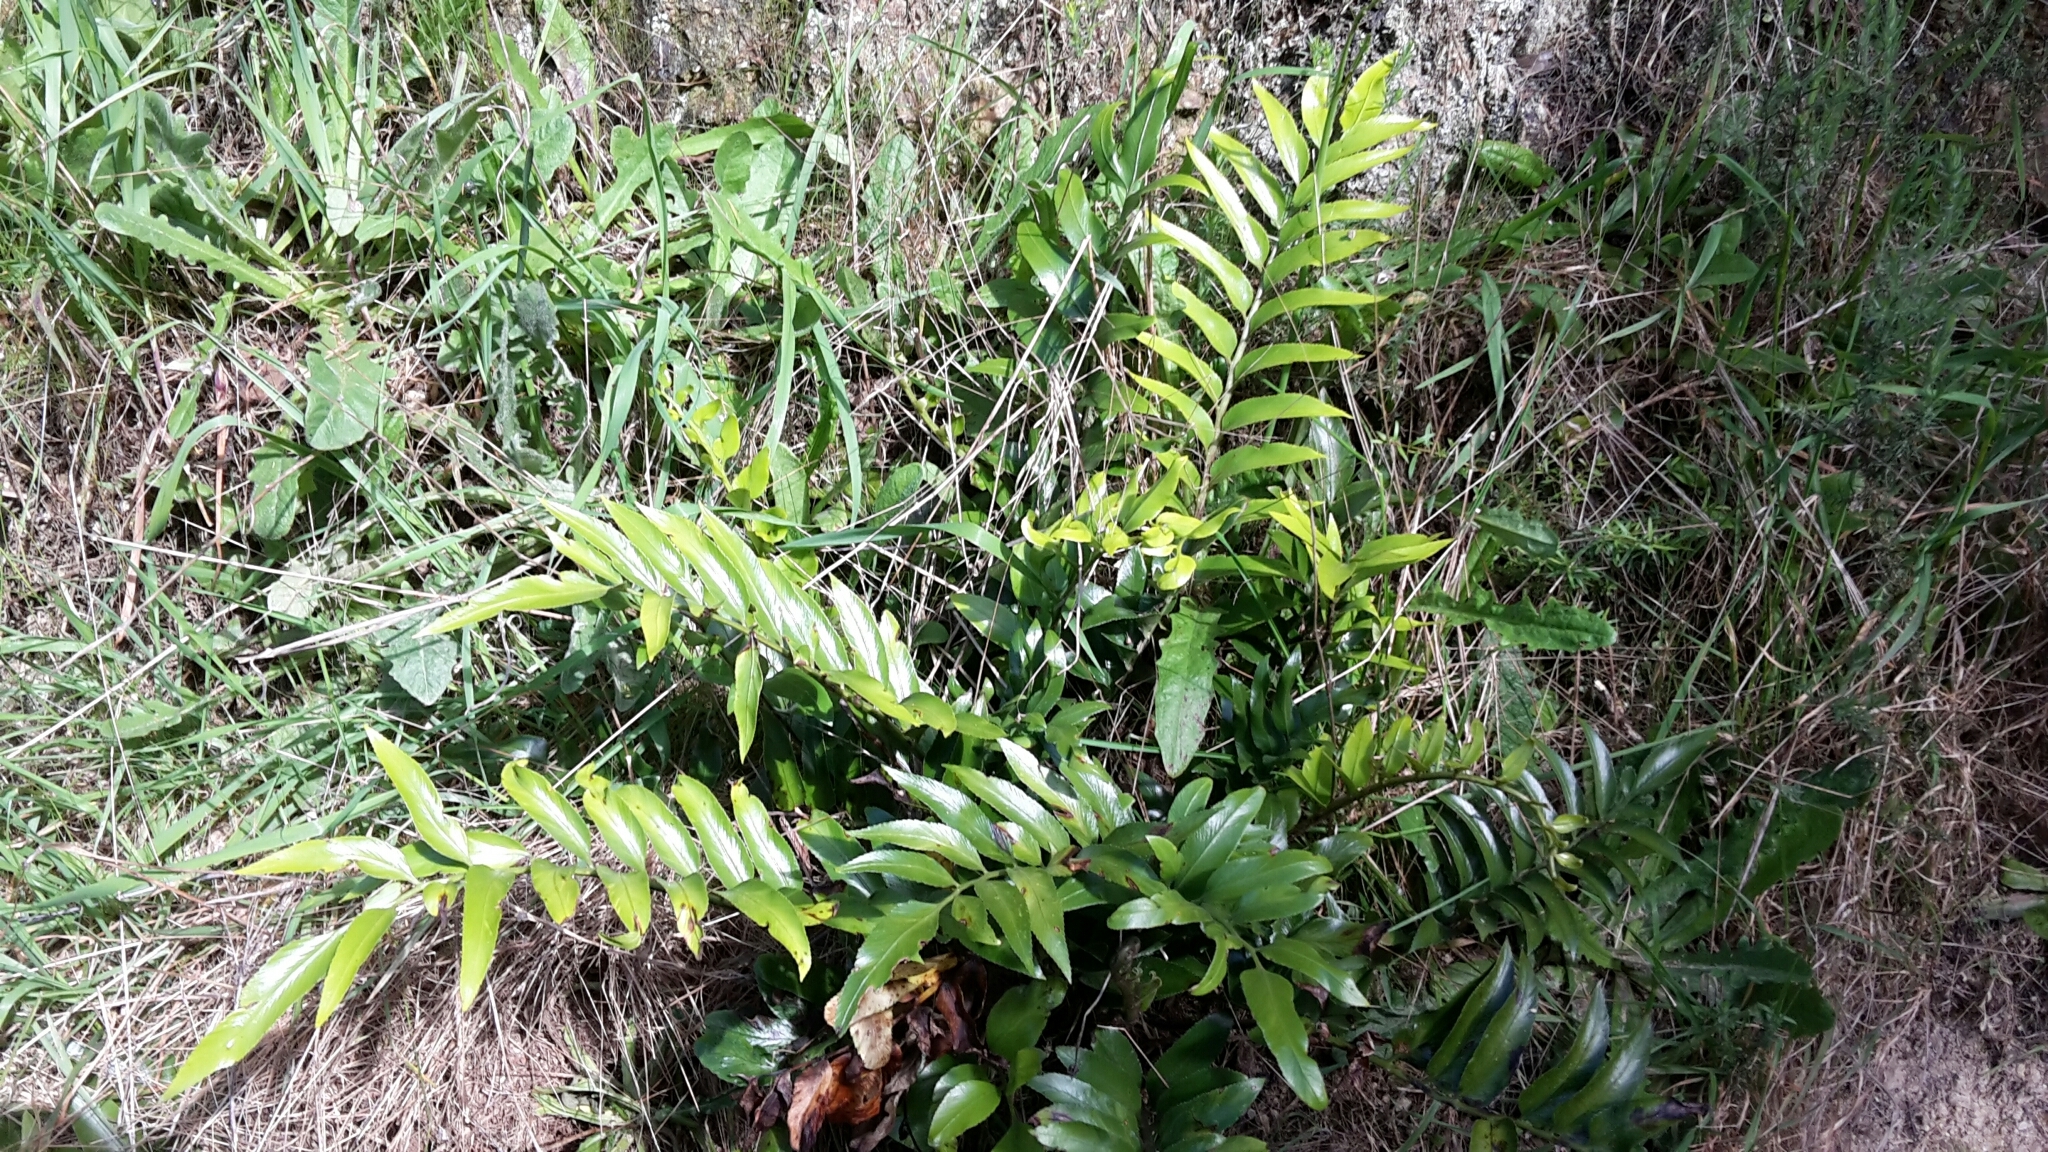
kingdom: Plantae
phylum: Tracheophyta
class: Polypodiopsida
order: Polypodiales
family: Aspleniaceae
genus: Asplenium
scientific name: Asplenium oblongifolium
